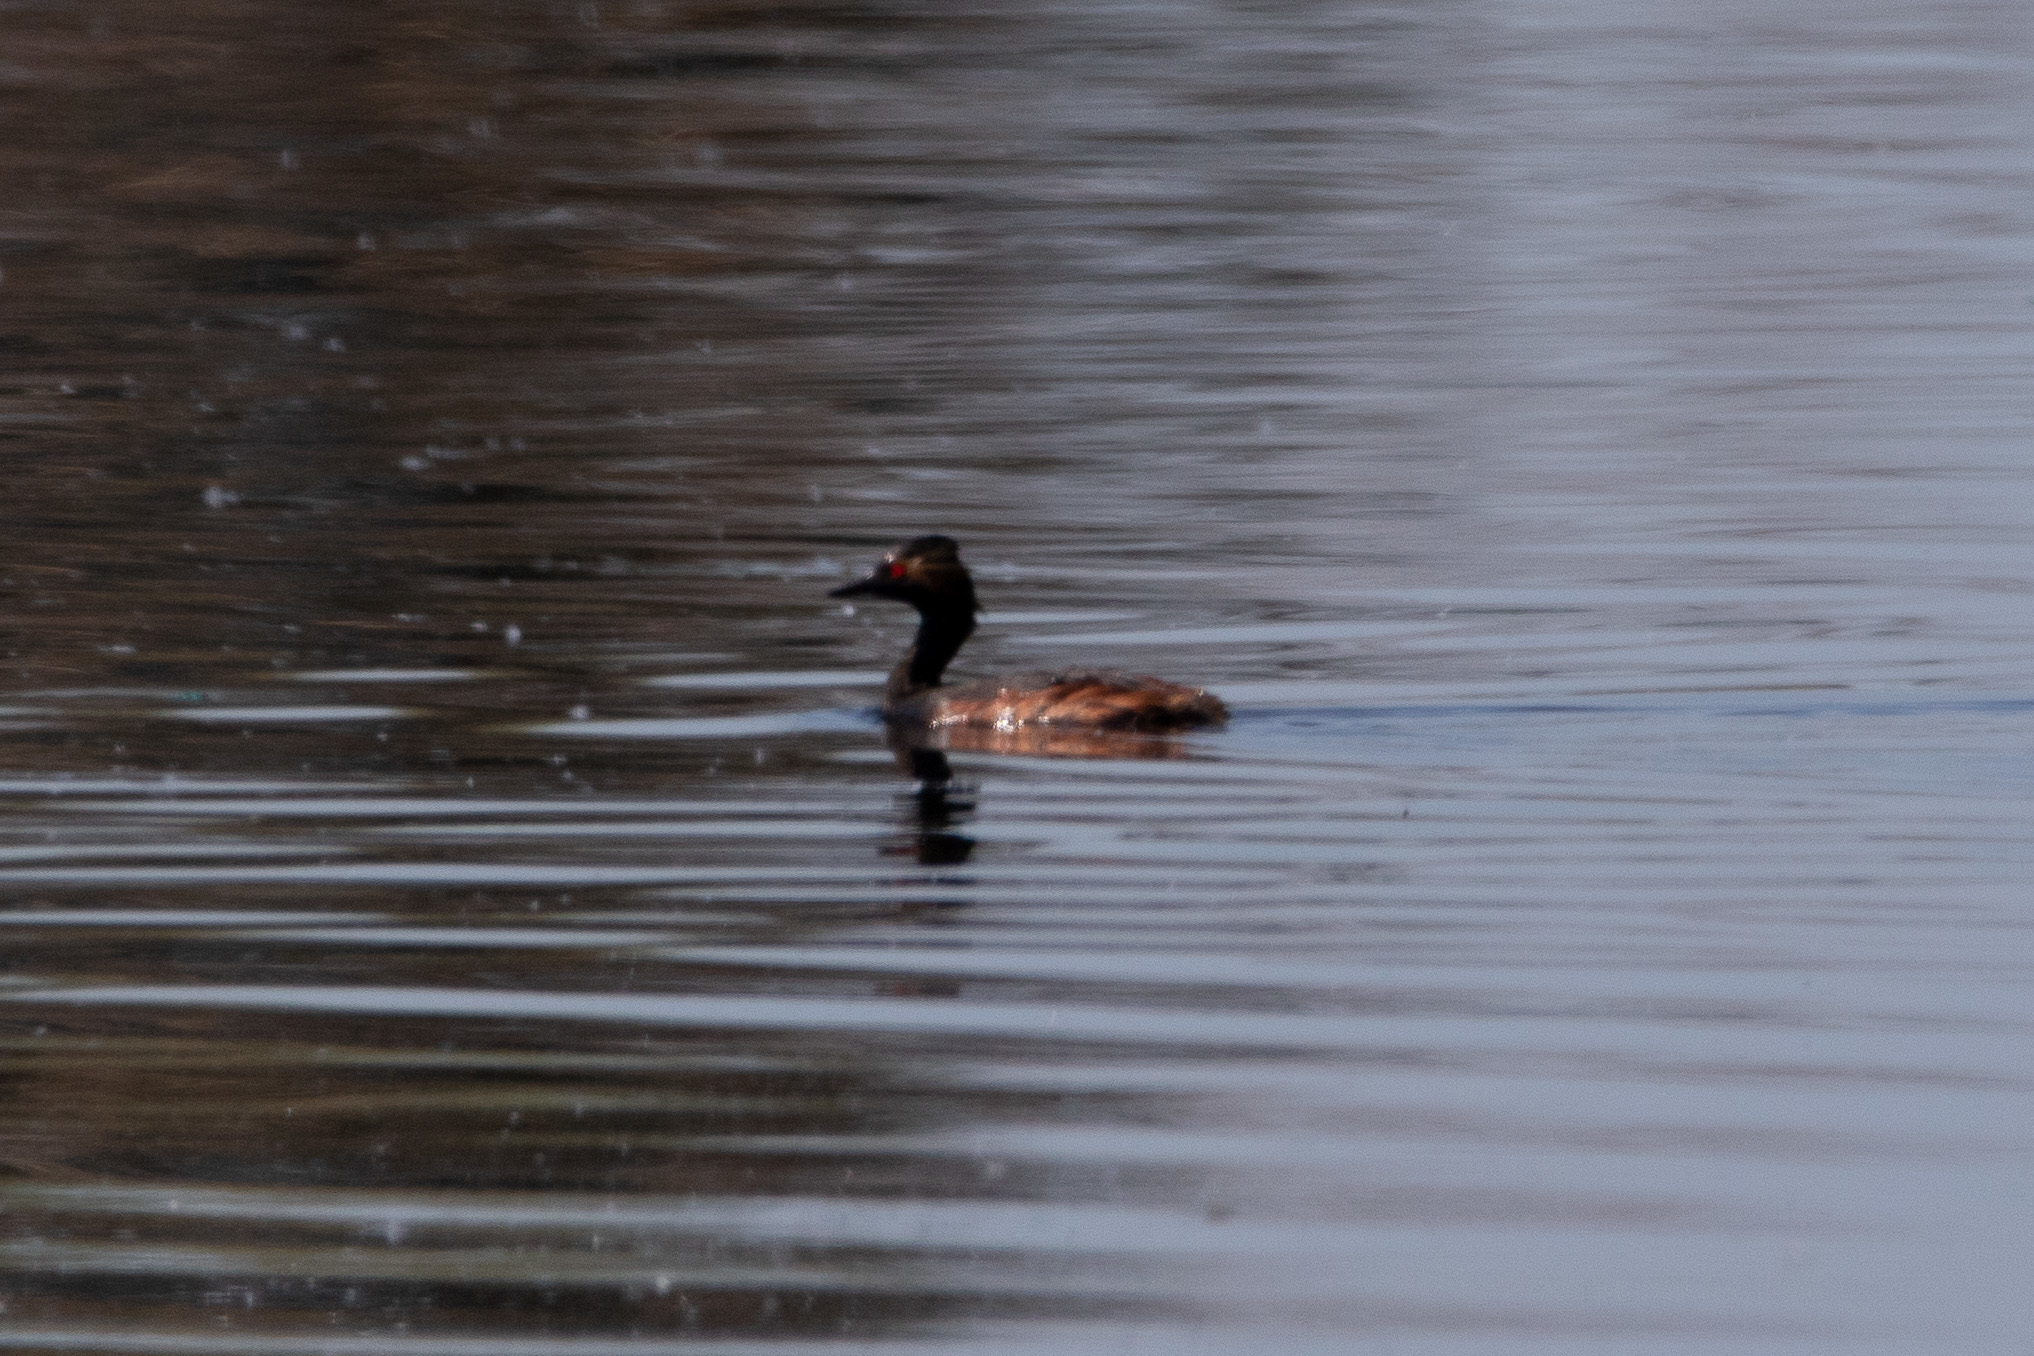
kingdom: Animalia
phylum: Chordata
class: Aves
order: Podicipediformes
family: Podicipedidae
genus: Podiceps
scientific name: Podiceps nigricollis
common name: Black-necked grebe
